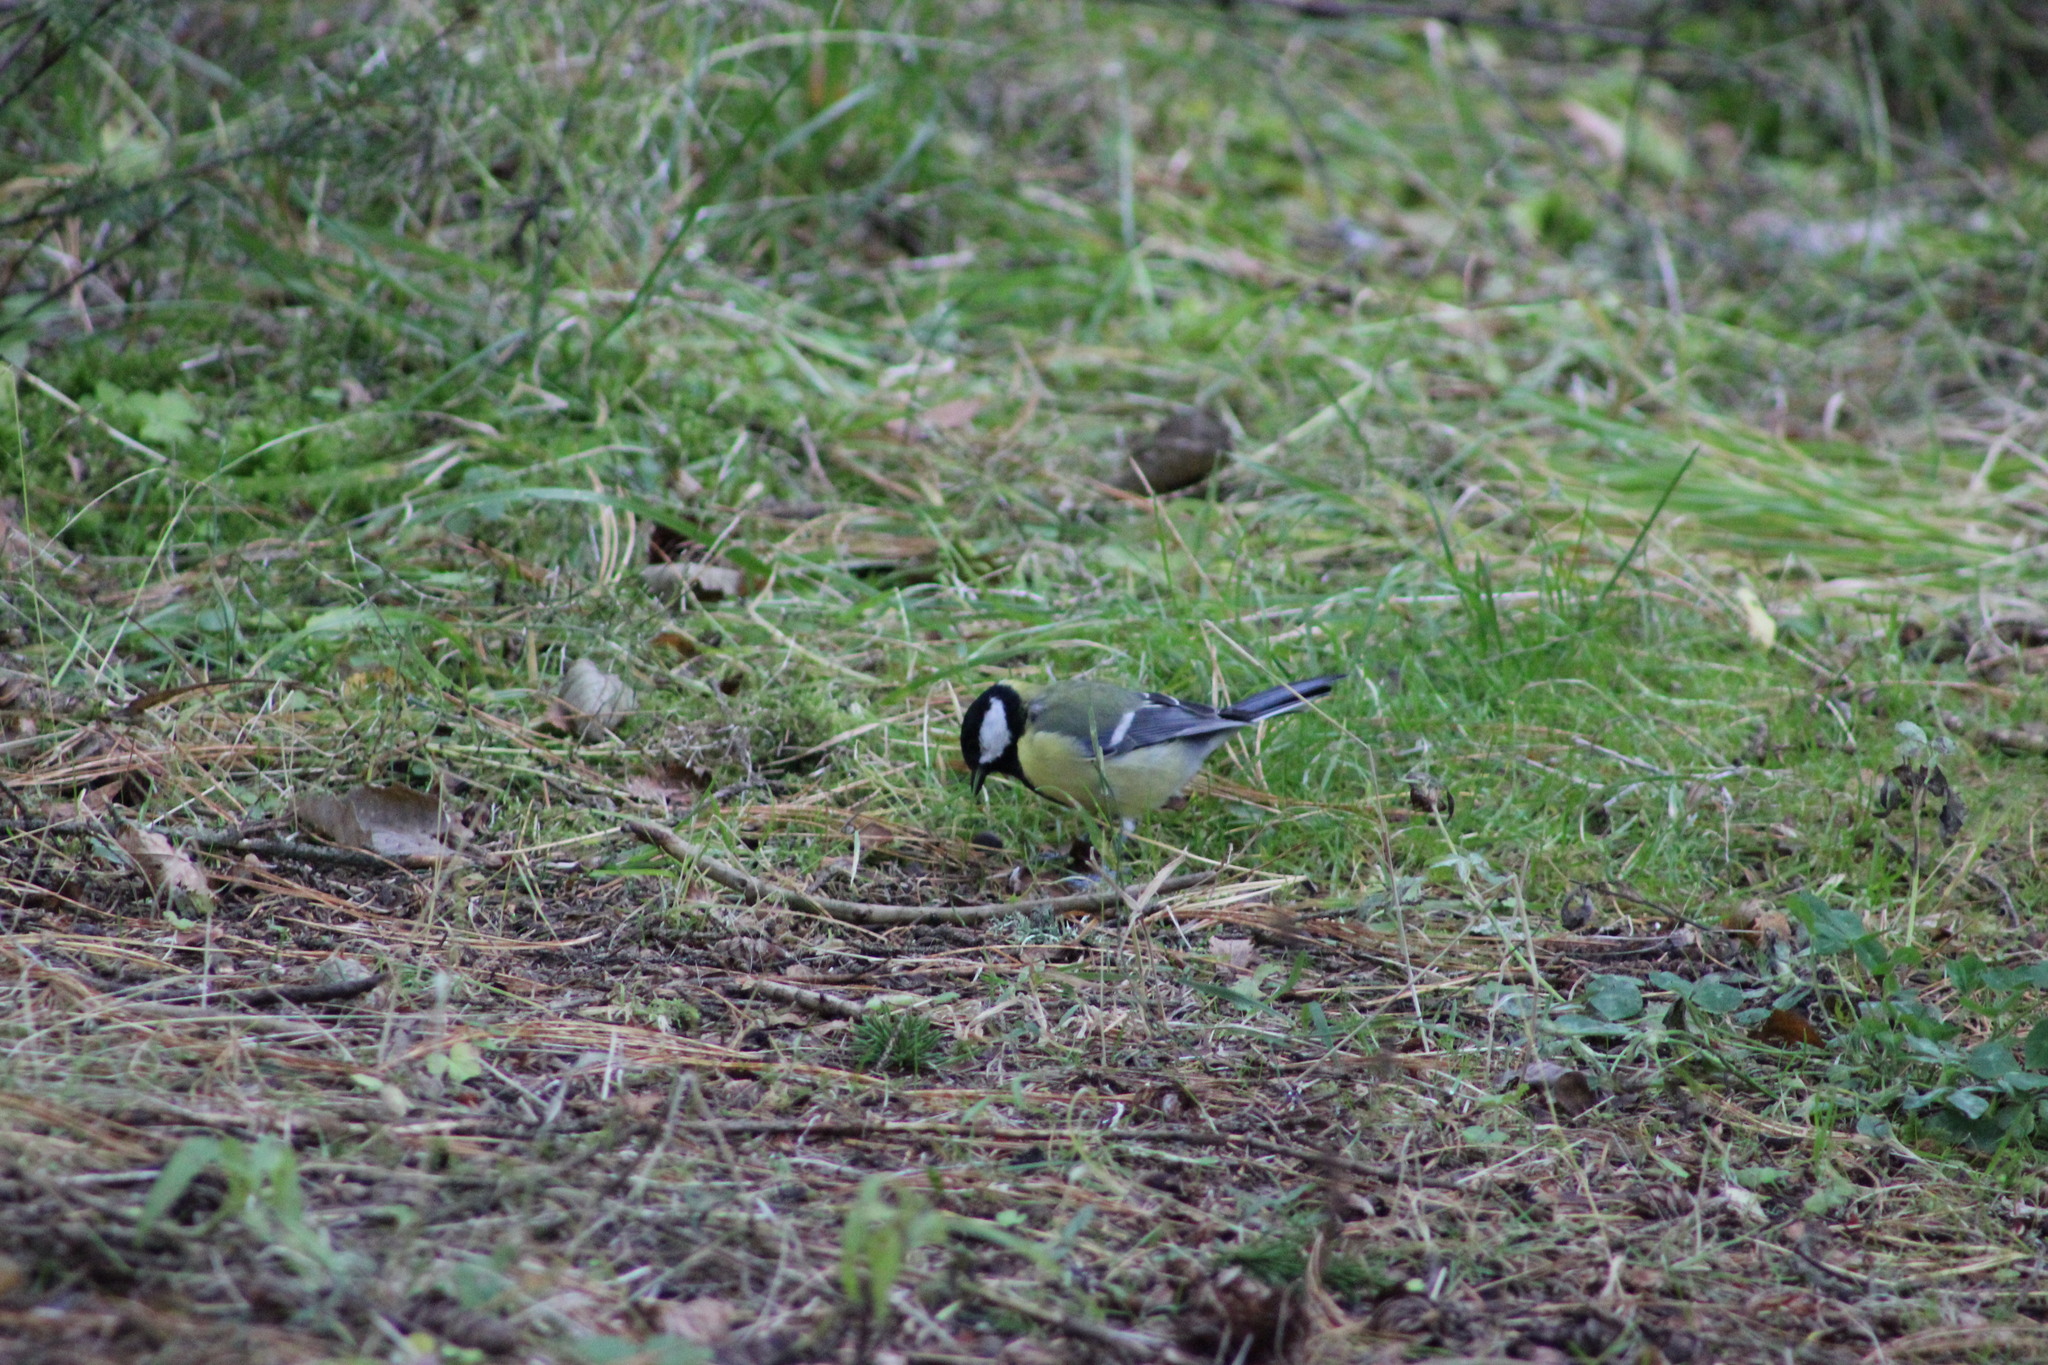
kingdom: Animalia
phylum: Chordata
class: Aves
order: Passeriformes
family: Paridae
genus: Parus
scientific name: Parus major
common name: Great tit
